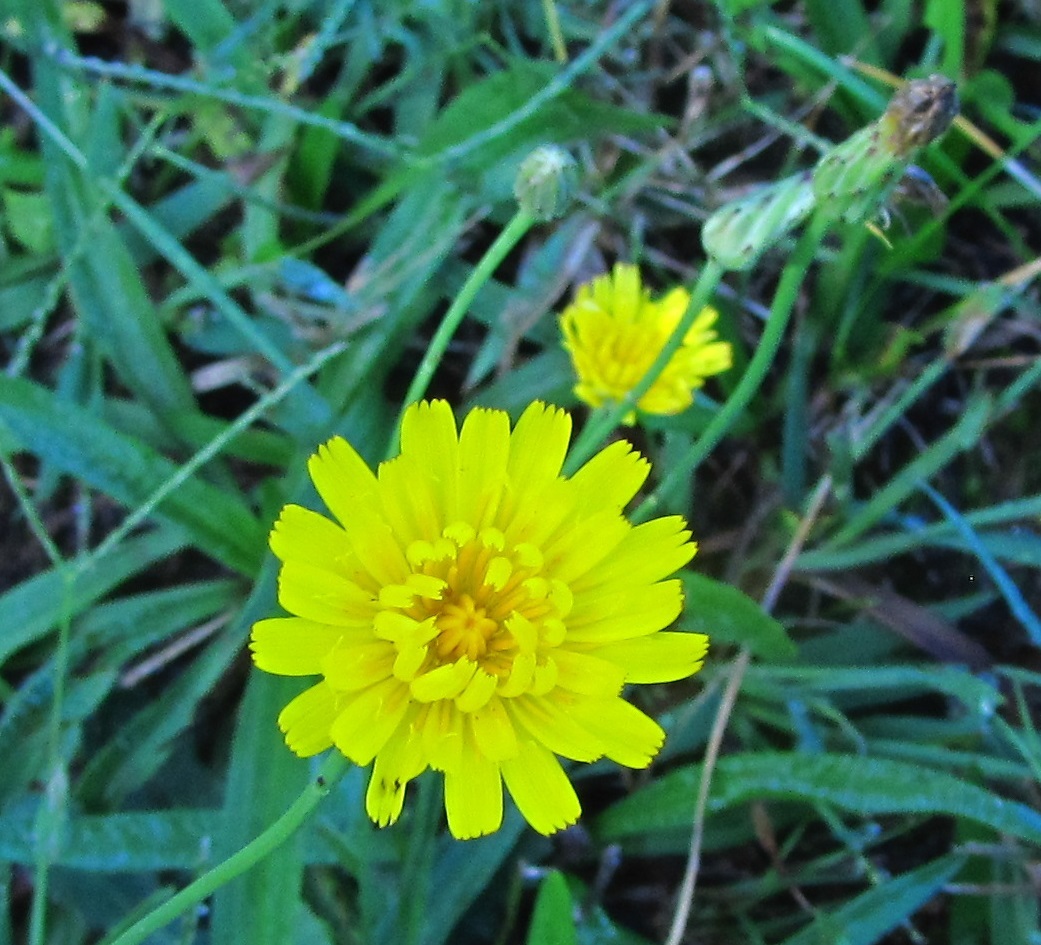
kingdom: Plantae
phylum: Tracheophyta
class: Magnoliopsida
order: Asterales
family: Asteraceae
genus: Hypochaeris
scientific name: Hypochaeris radicata
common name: Flatweed
